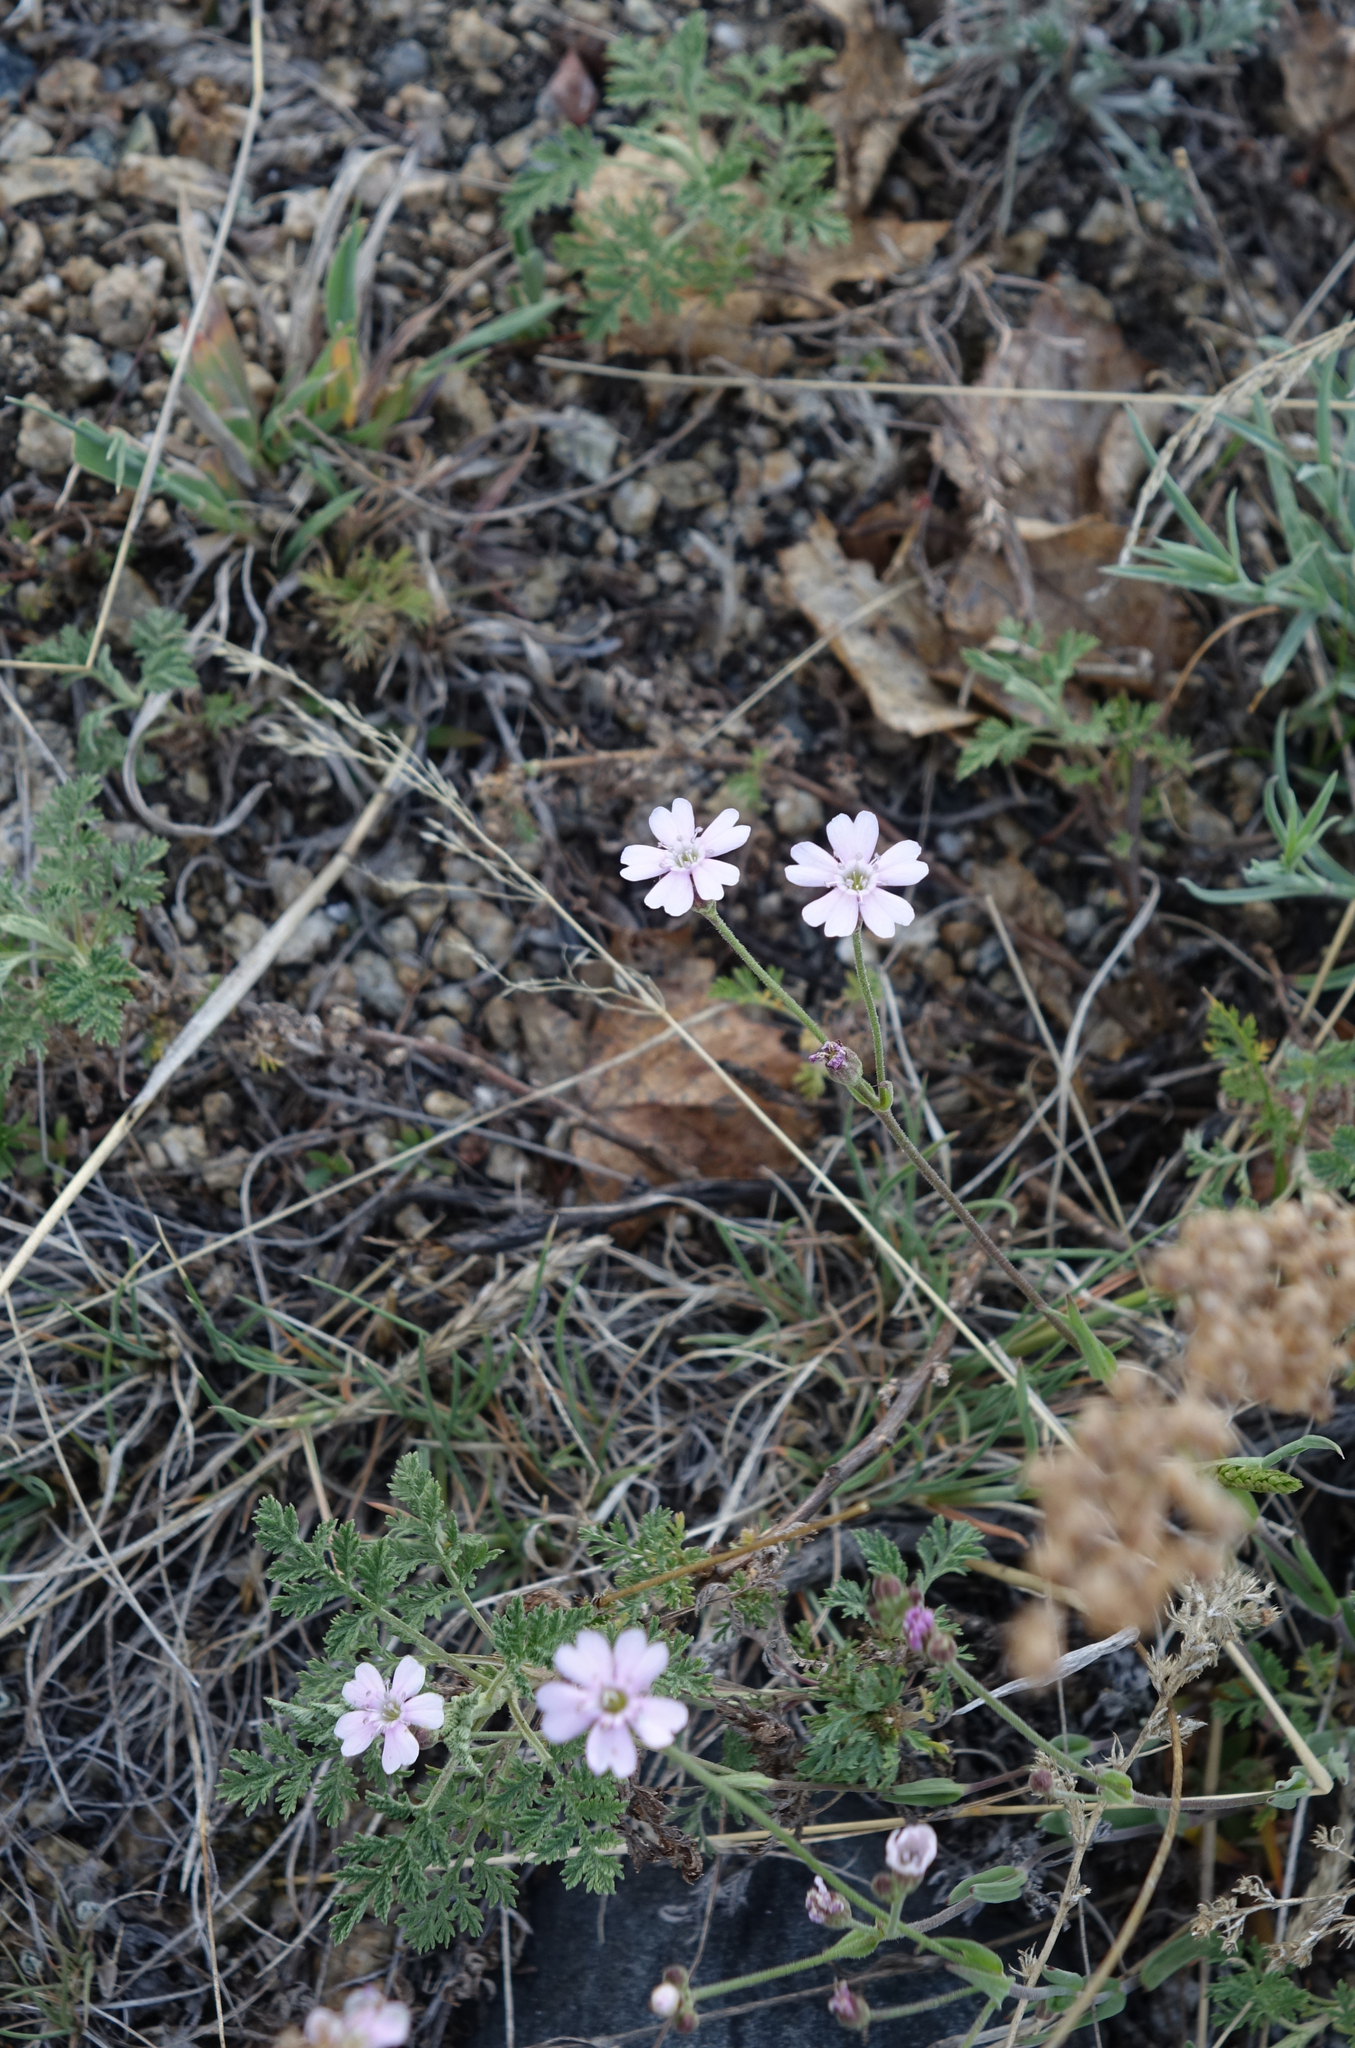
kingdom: Plantae
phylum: Tracheophyta
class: Magnoliopsida
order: Caryophyllales
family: Caryophyllaceae
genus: Silene
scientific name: Silene orientalimongolica
